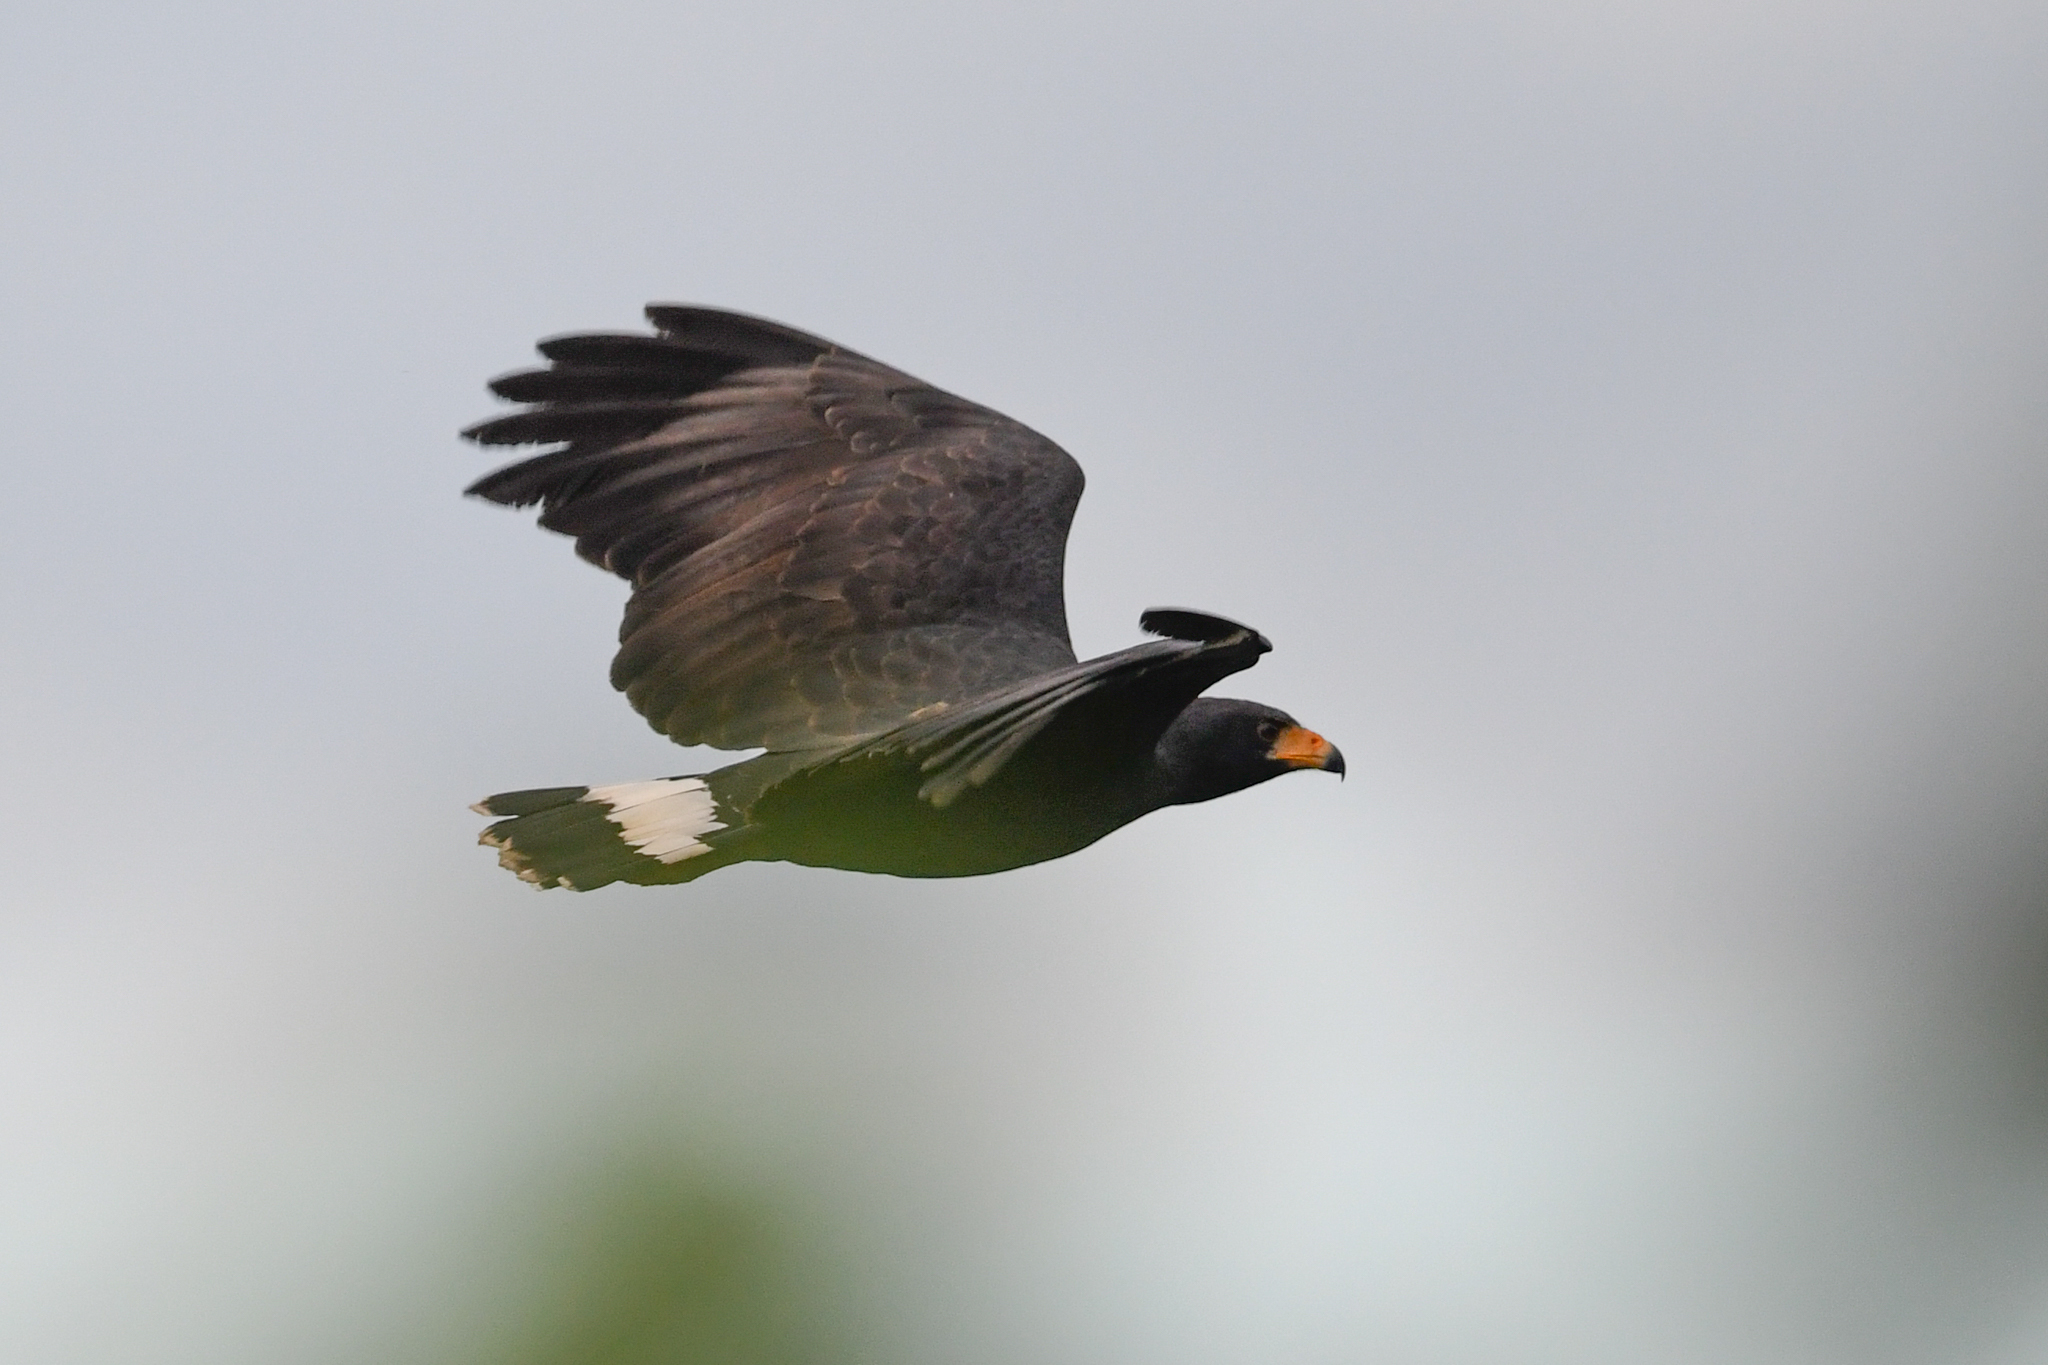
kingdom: Animalia
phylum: Chordata
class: Aves
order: Accipitriformes
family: Accipitridae
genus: Buteogallus
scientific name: Buteogallus anthracinus
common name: Common black hawk
